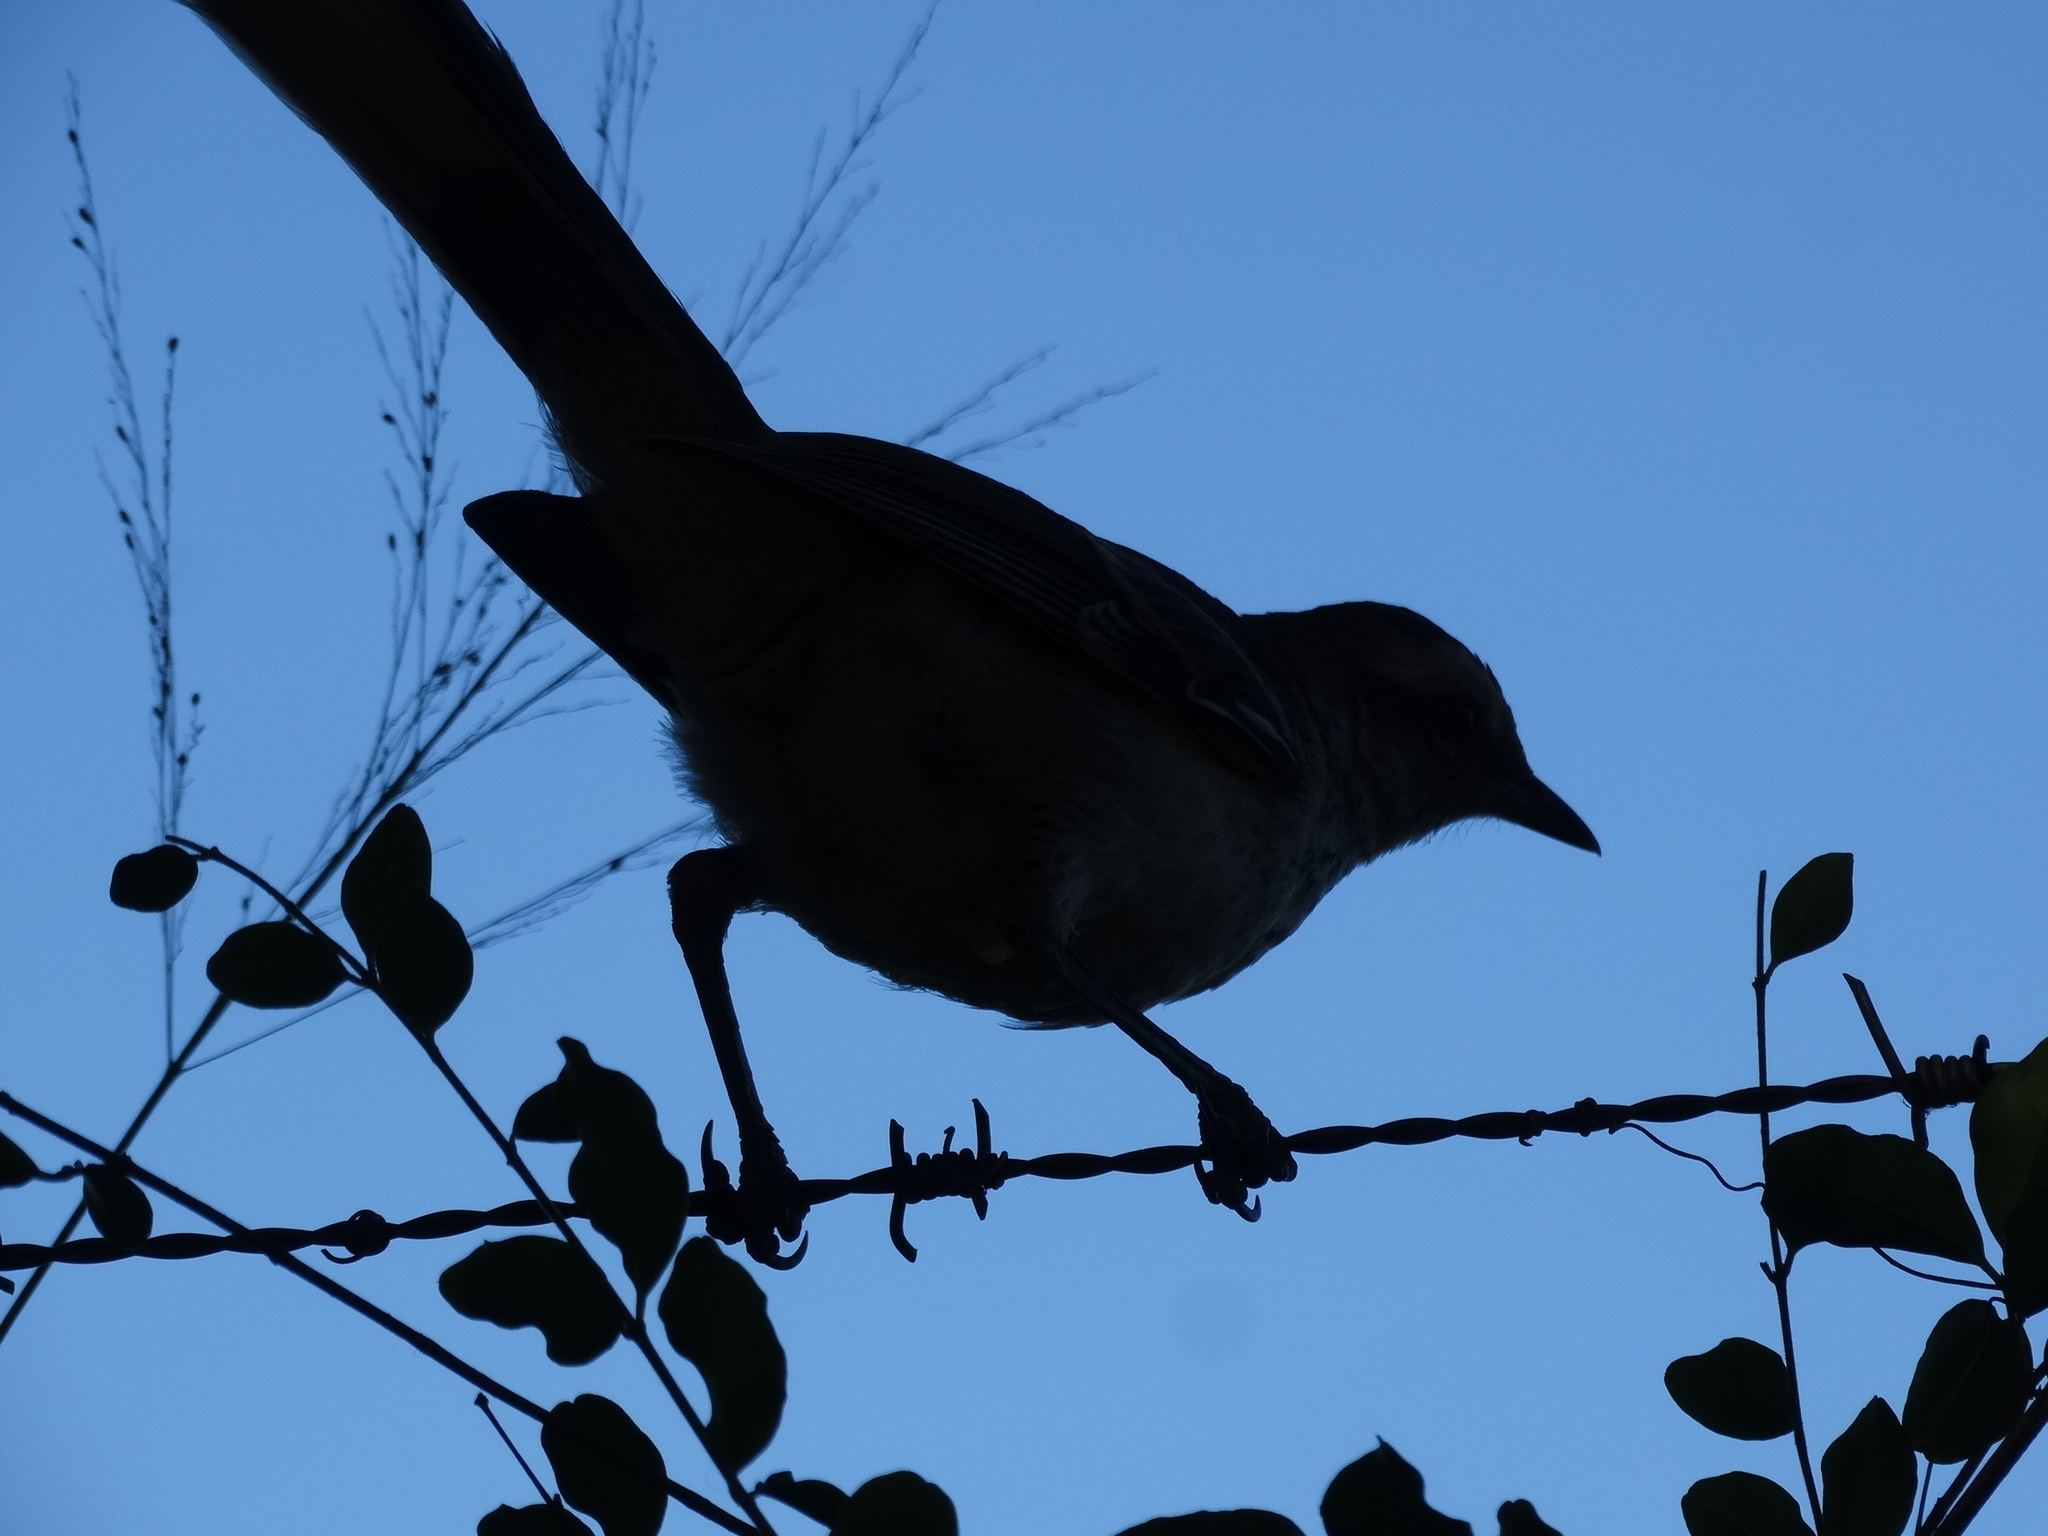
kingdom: Animalia
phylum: Chordata
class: Aves
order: Passeriformes
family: Mimidae
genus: Mimus
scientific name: Mimus saturninus
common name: Chalk-browed mockingbird
